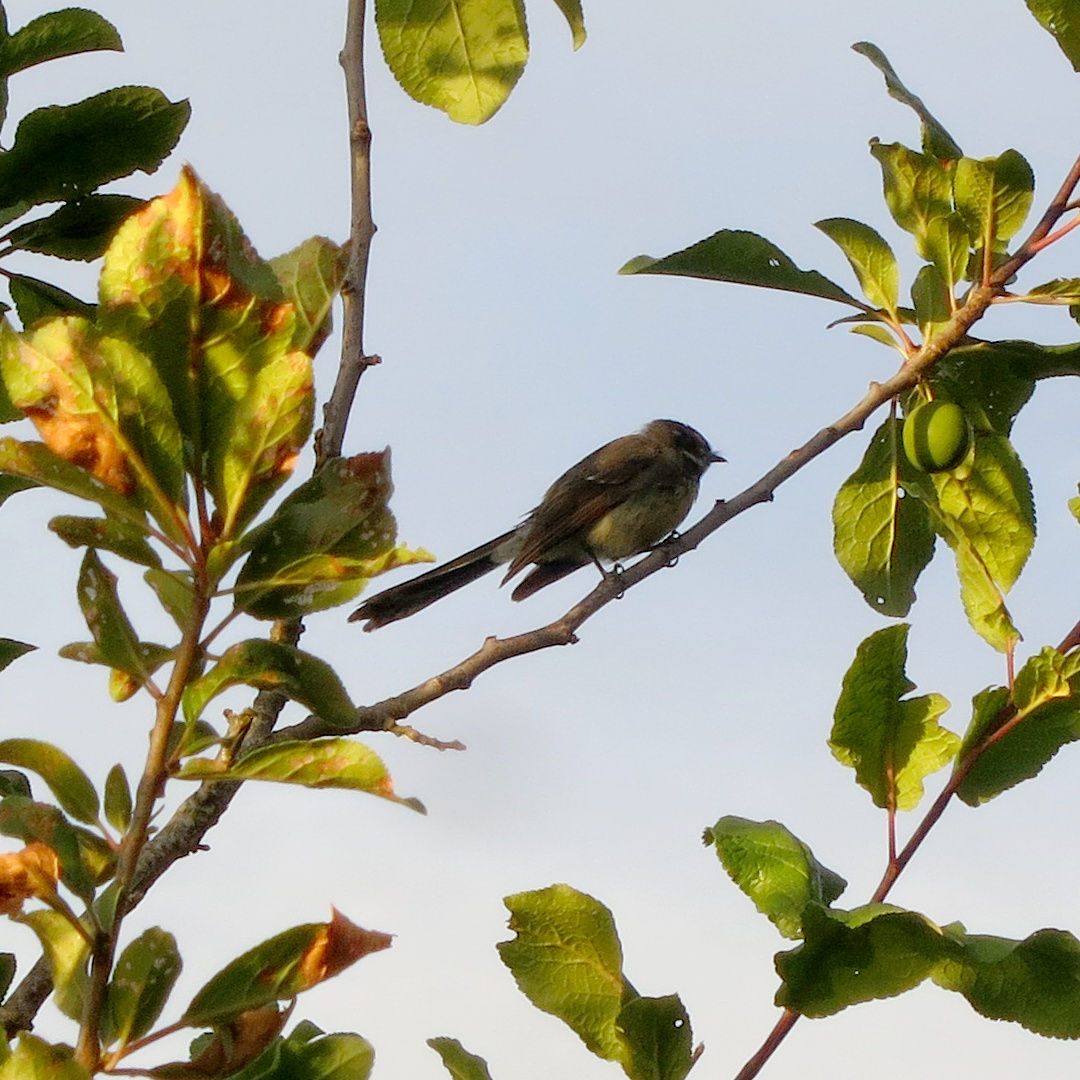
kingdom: Animalia
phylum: Chordata
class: Aves
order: Passeriformes
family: Rhipiduridae
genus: Rhipidura
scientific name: Rhipidura albiscapa
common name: Grey fantail
